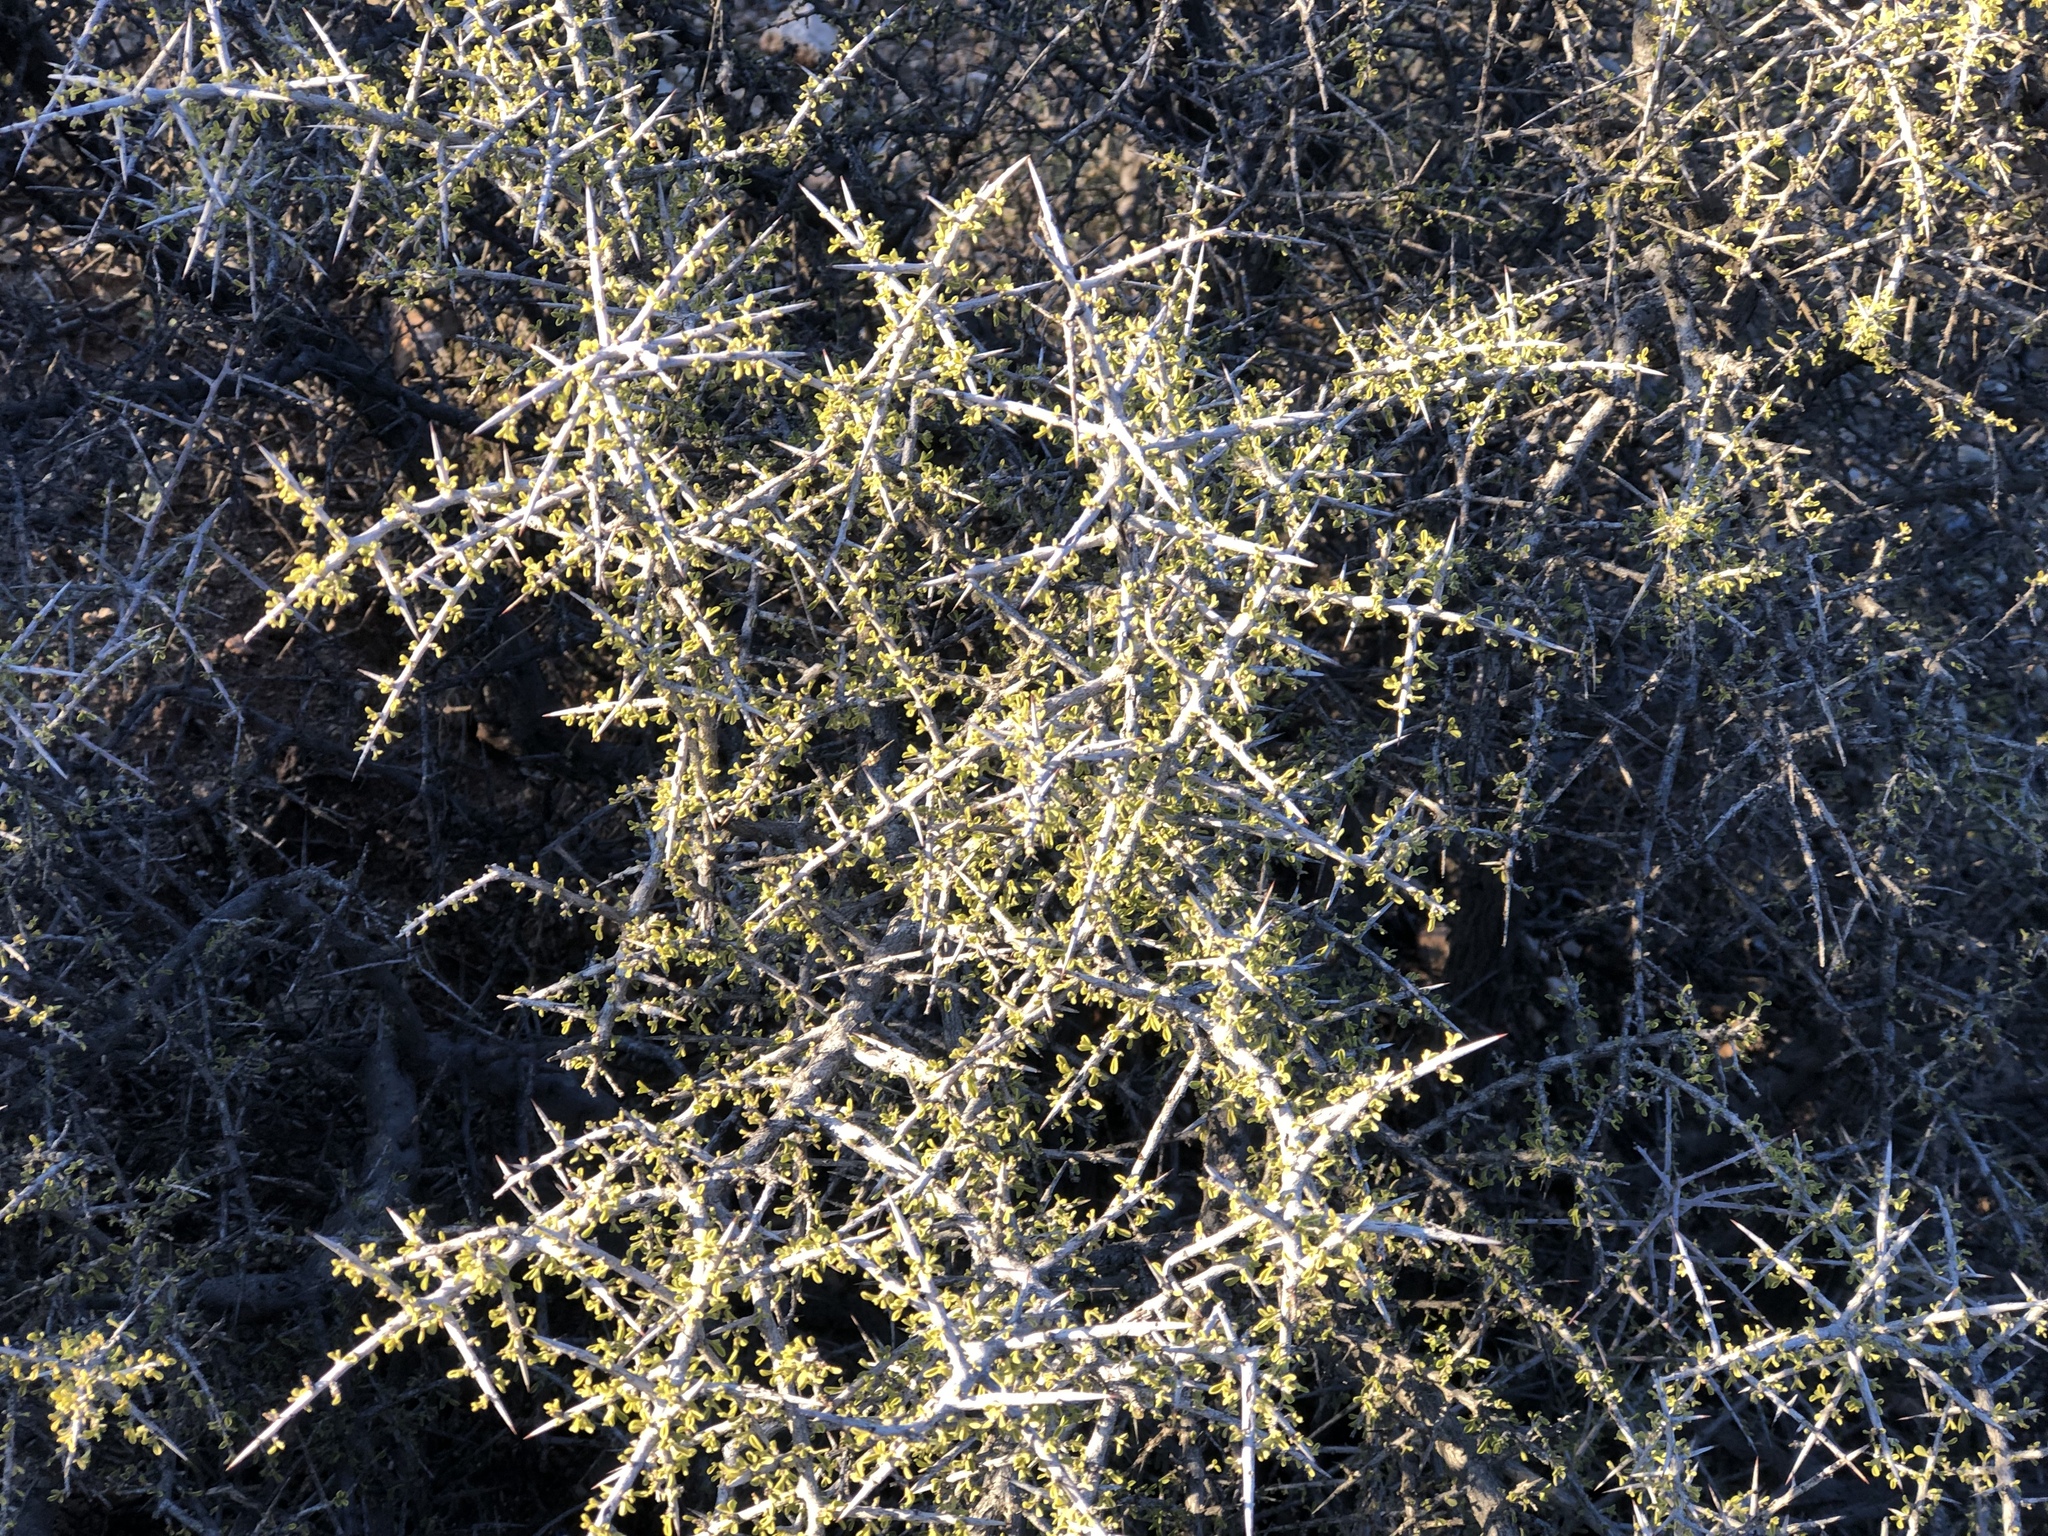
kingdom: Plantae
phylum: Tracheophyta
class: Magnoliopsida
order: Rosales
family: Rhamnaceae
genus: Condalia
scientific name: Condalia warnockii
